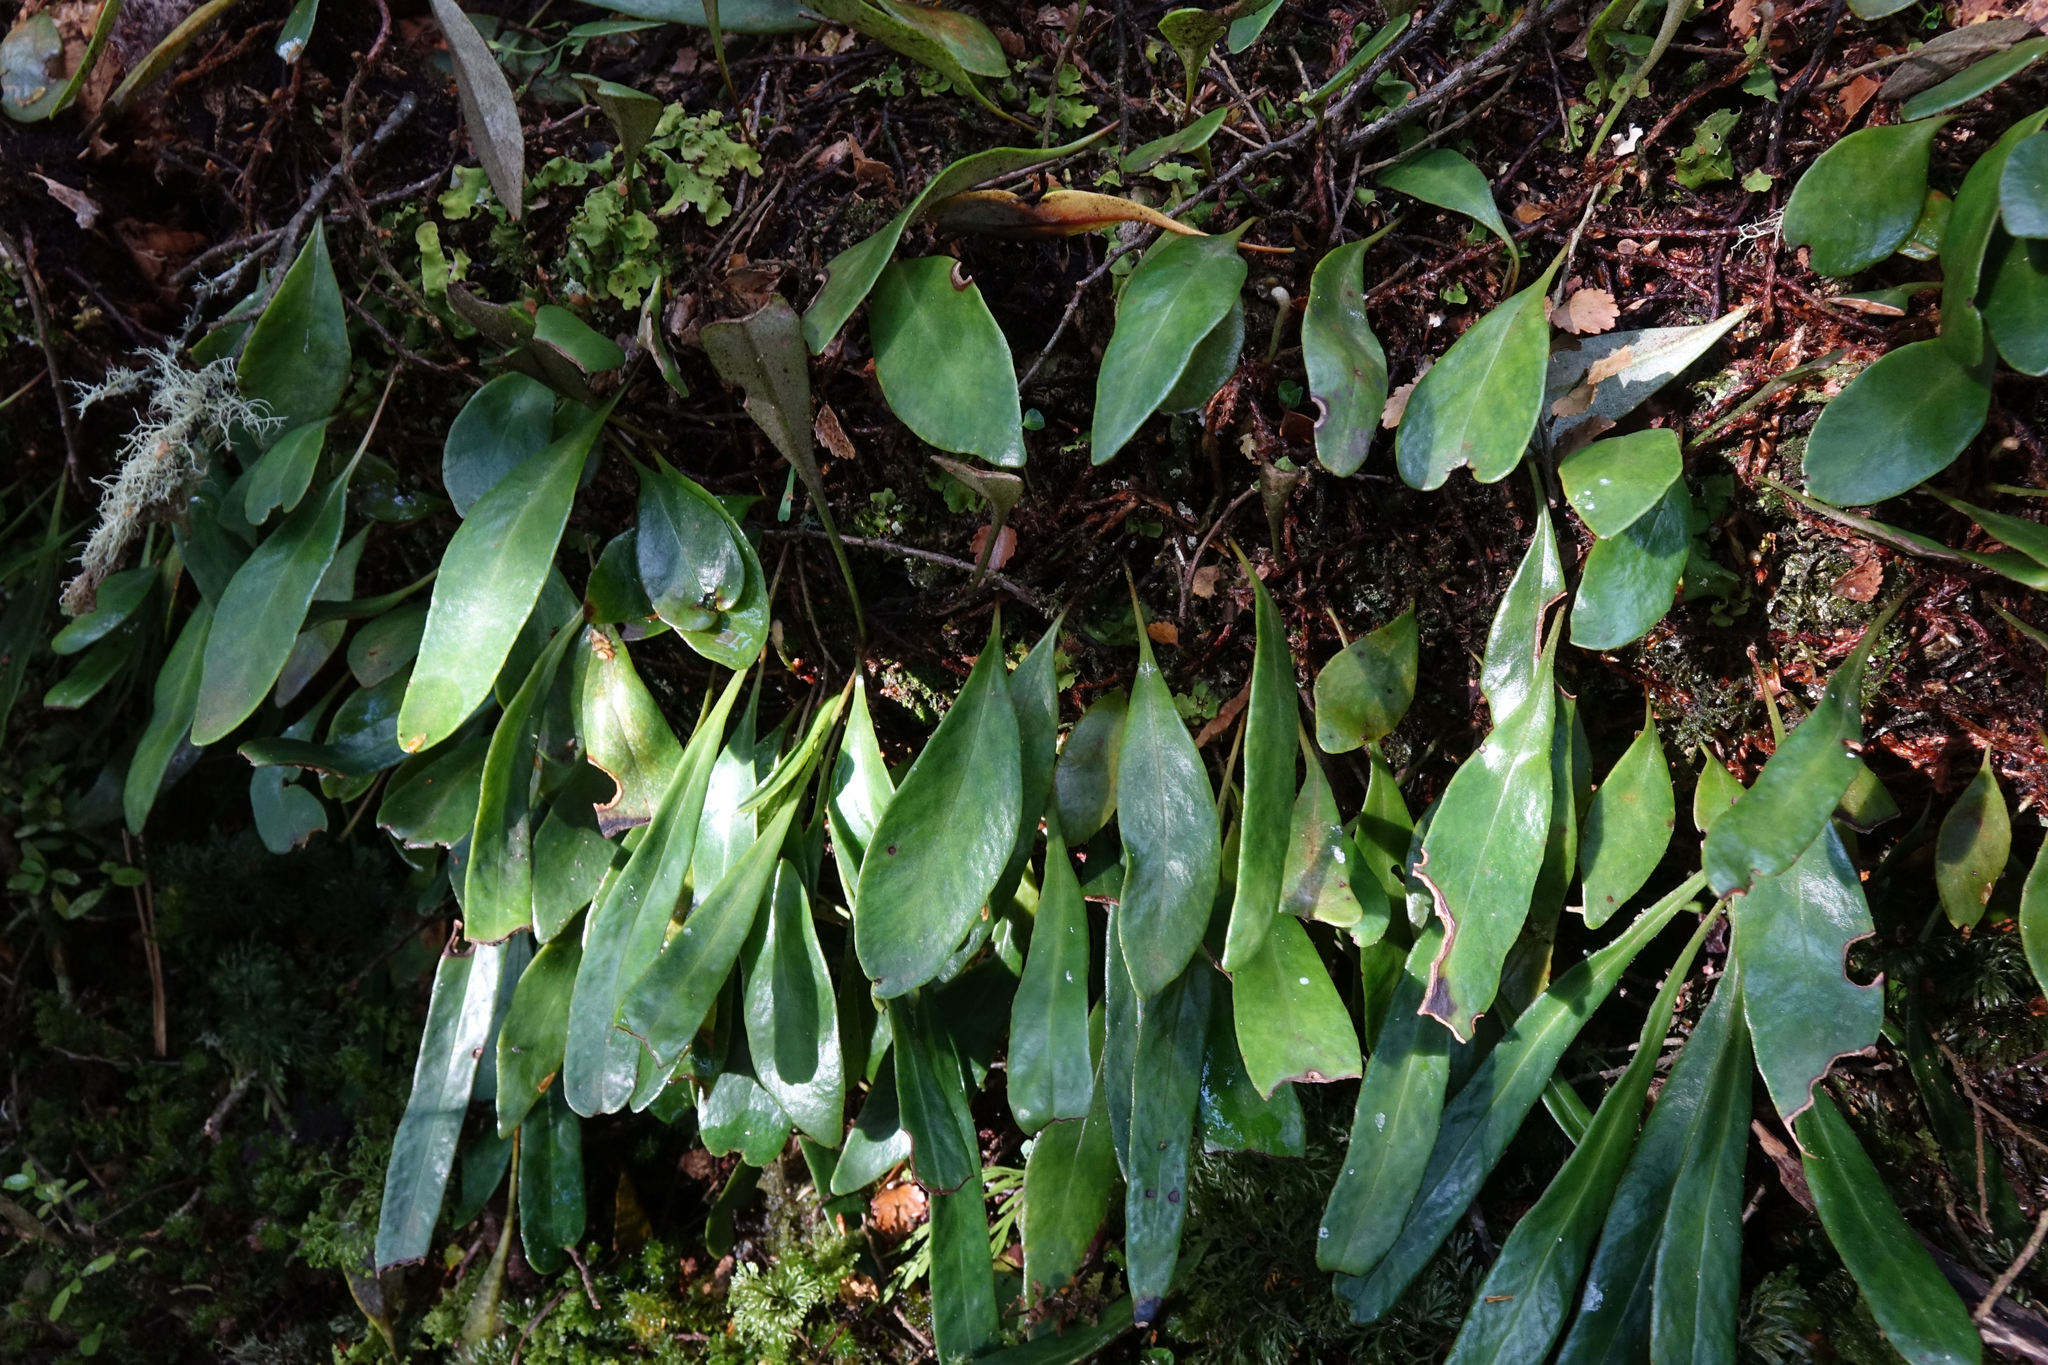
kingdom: Plantae
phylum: Tracheophyta
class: Polypodiopsida
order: Polypodiales
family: Polypodiaceae
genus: Pyrrosia
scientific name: Pyrrosia eleagnifolia
